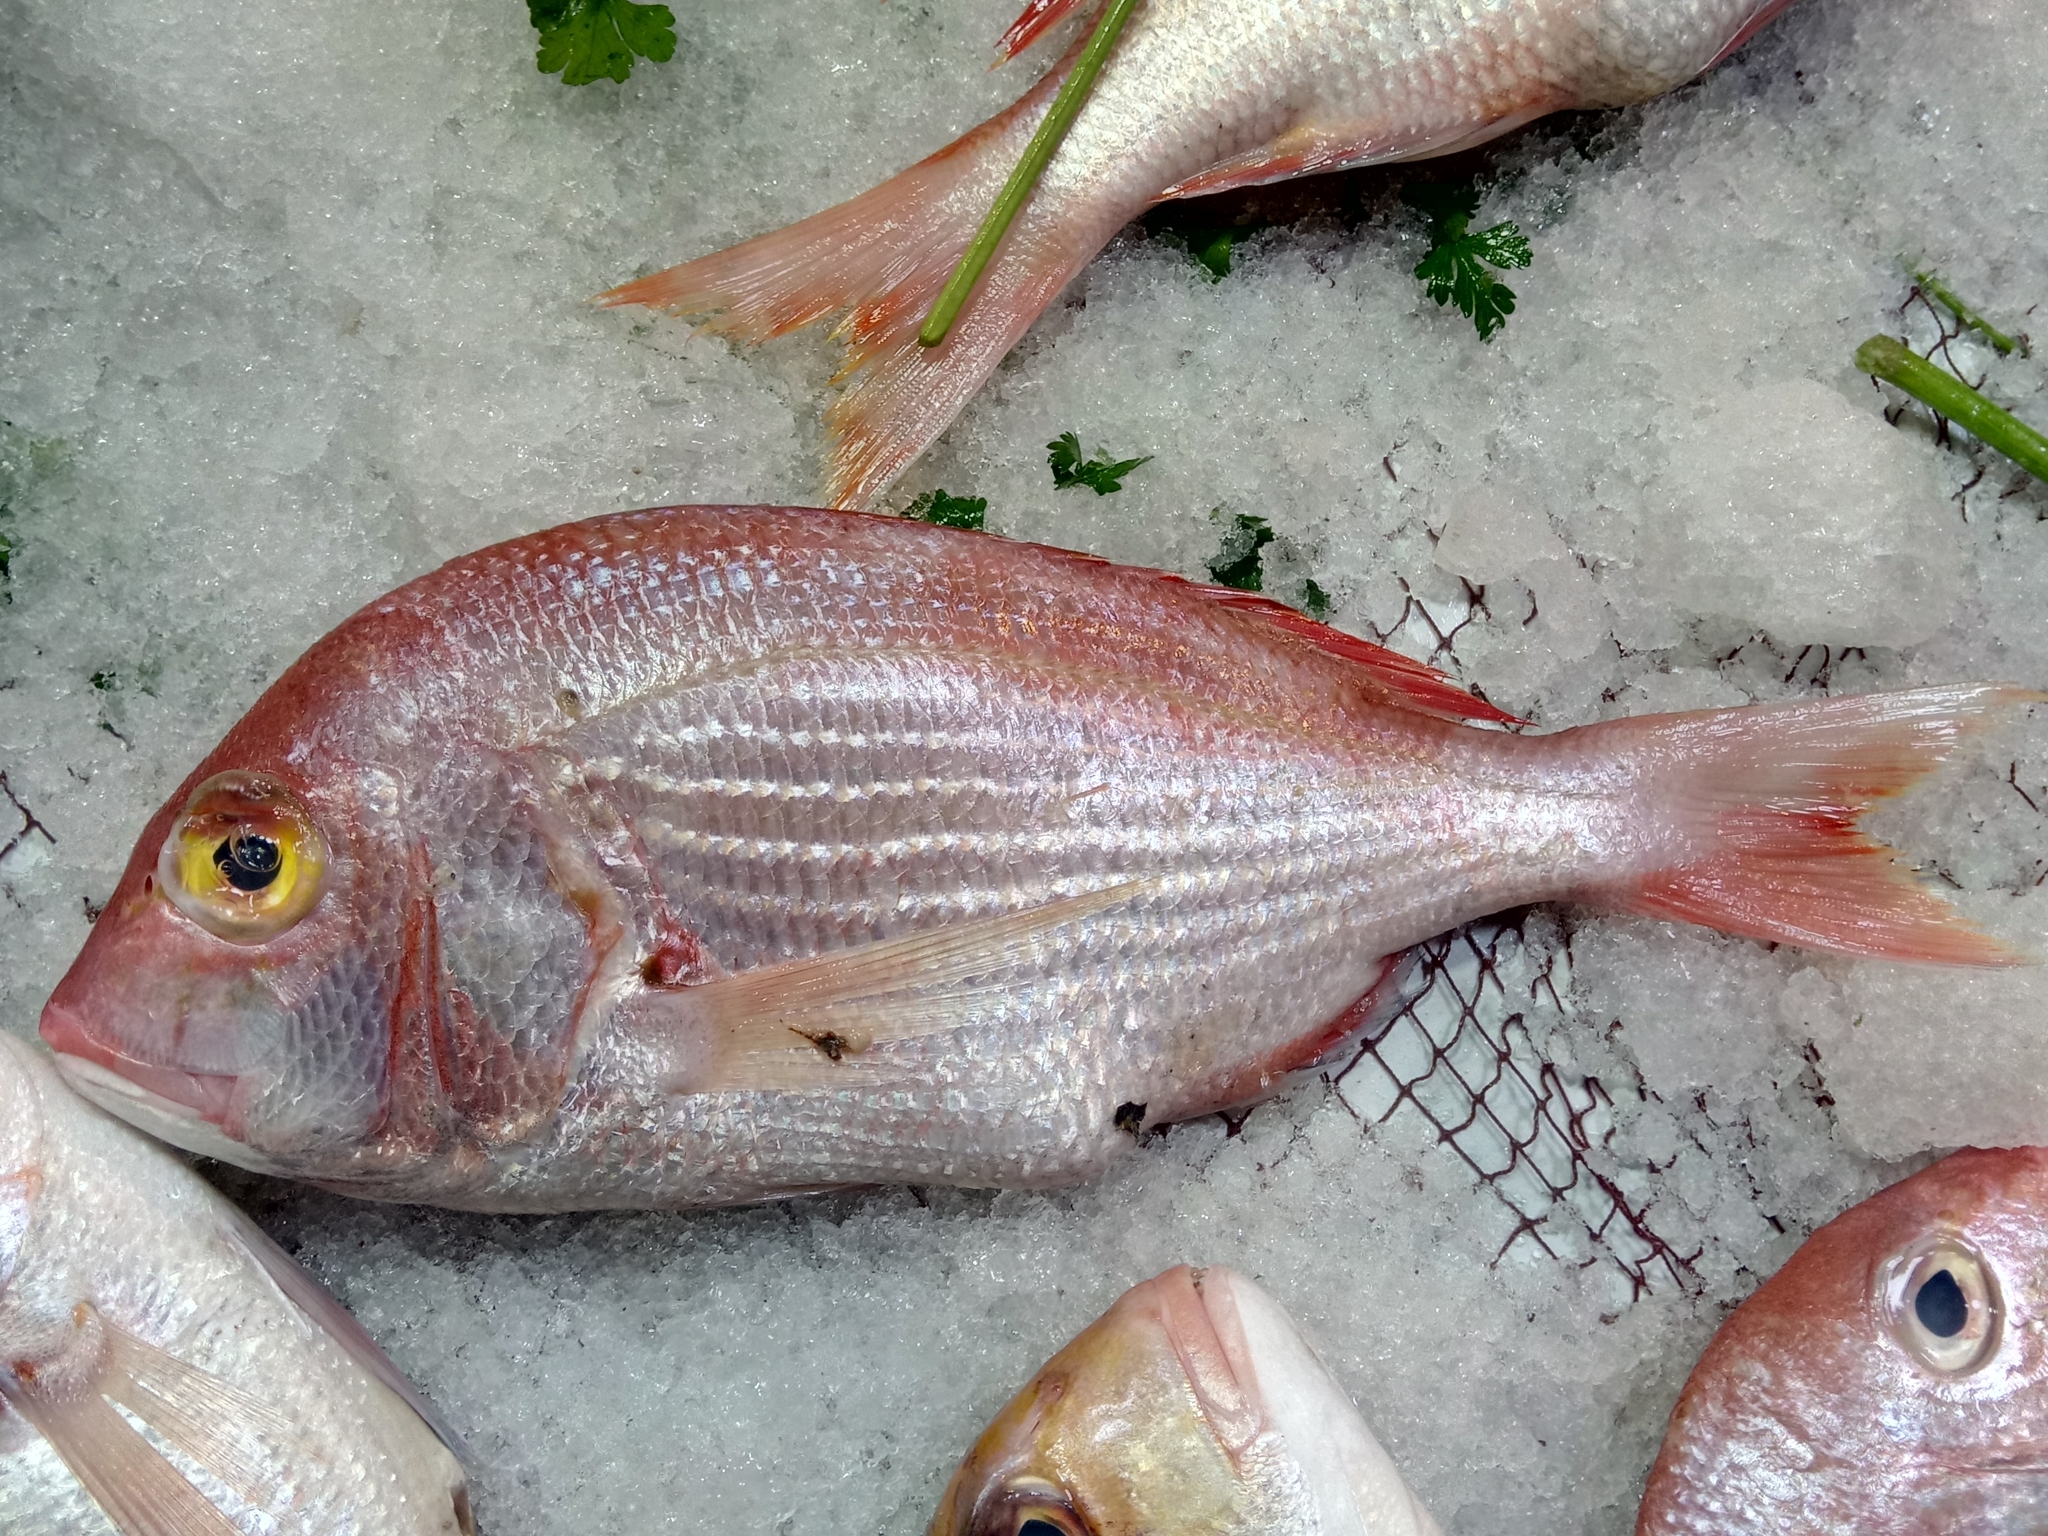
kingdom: Animalia
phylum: Chordata
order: Perciformes
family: Sparidae
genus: Dentex
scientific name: Dentex angolensis
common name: Angola dentex
